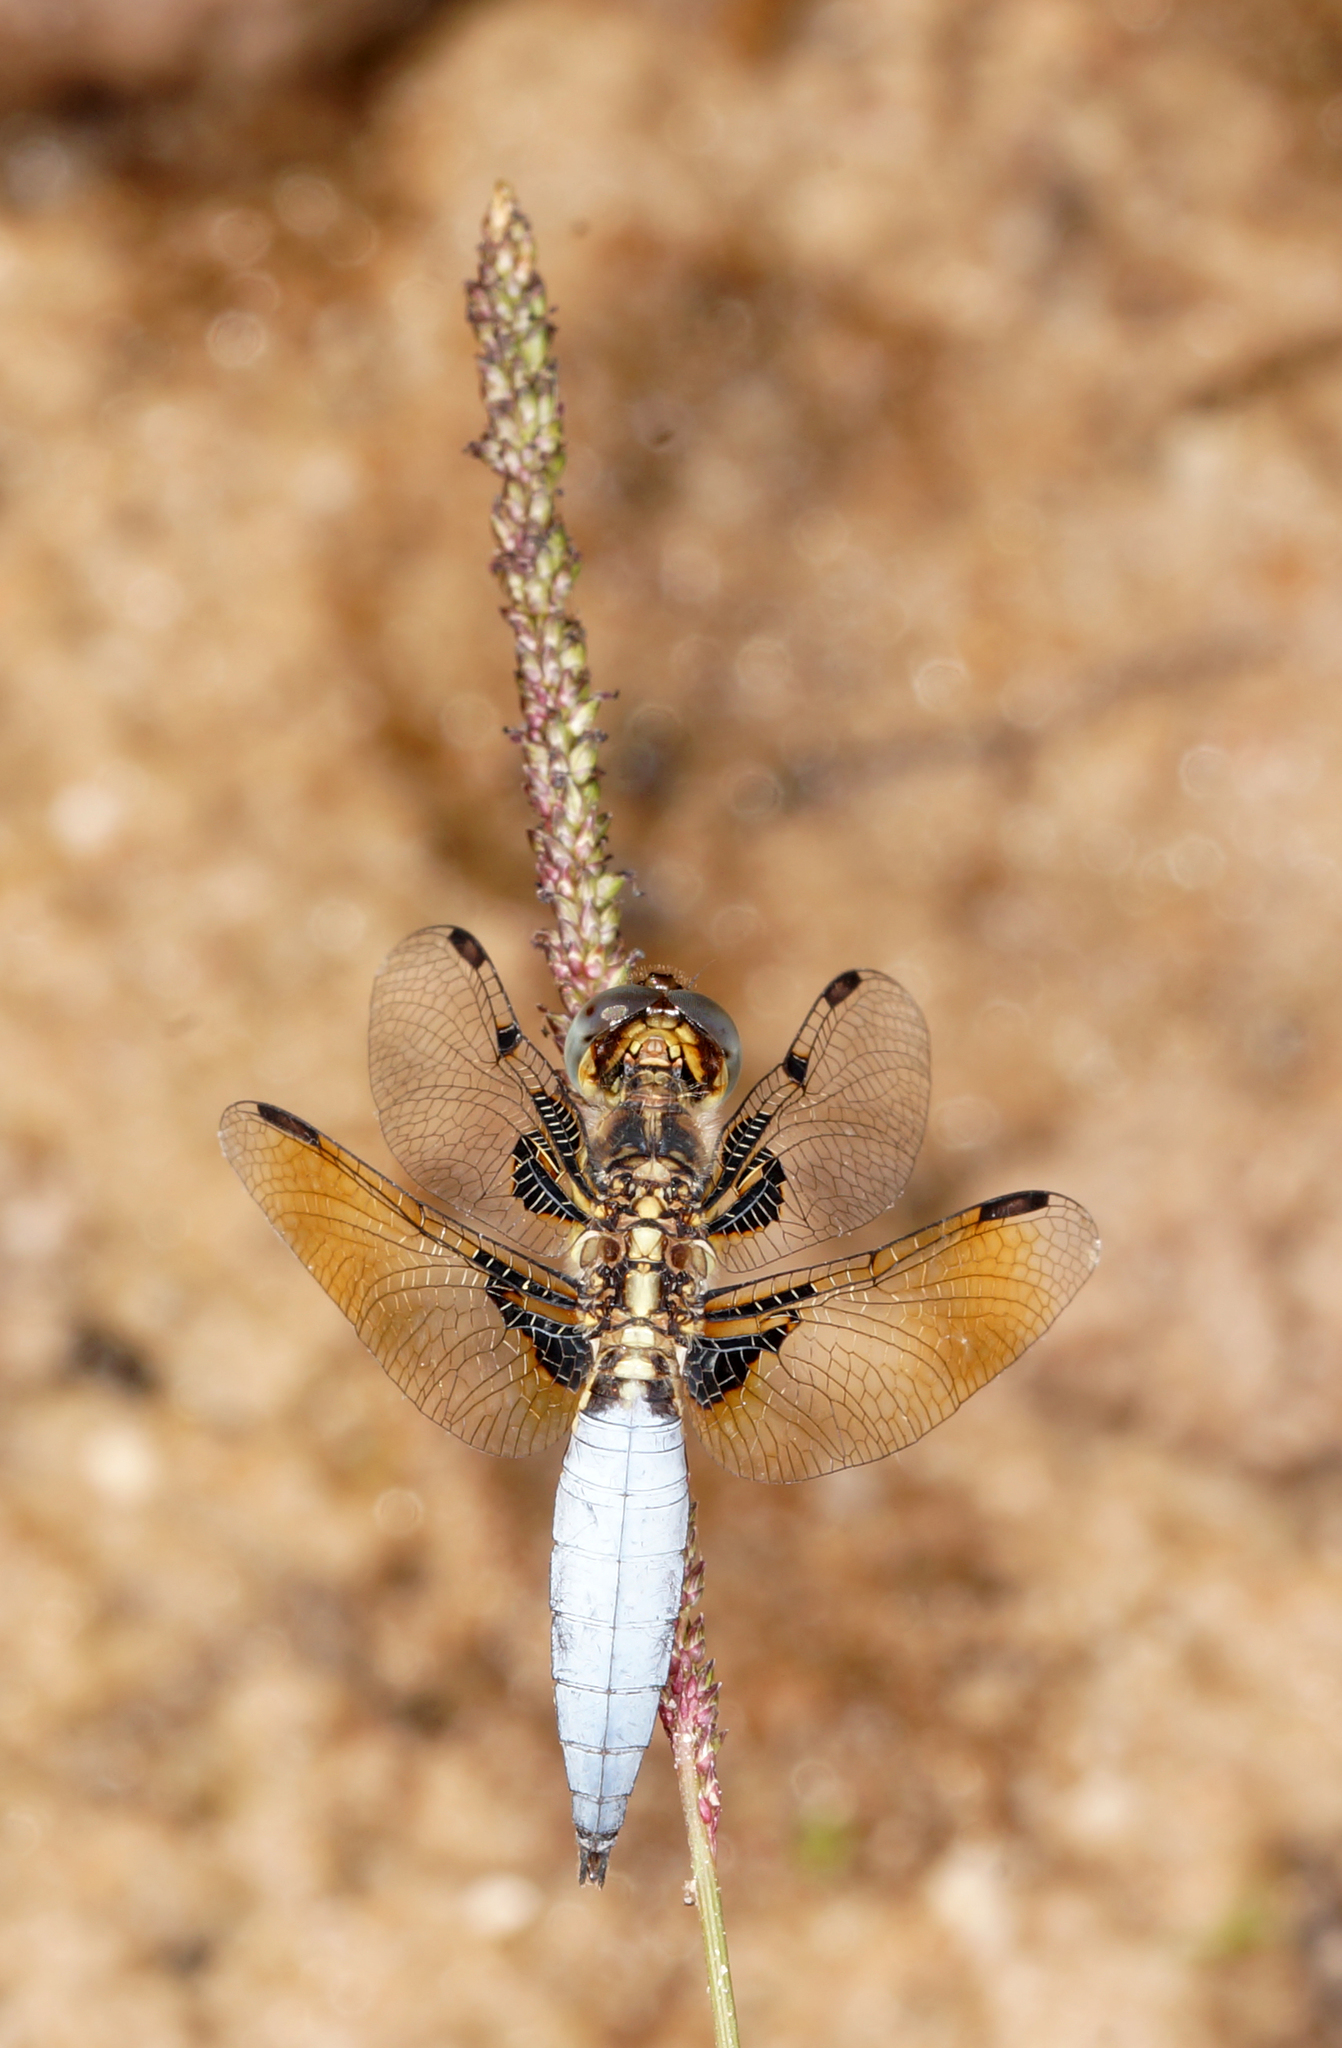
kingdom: Animalia
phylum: Arthropoda
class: Insecta
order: Odonata
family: Libellulidae
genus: Palpopleura
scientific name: Palpopleura sexmaculata
